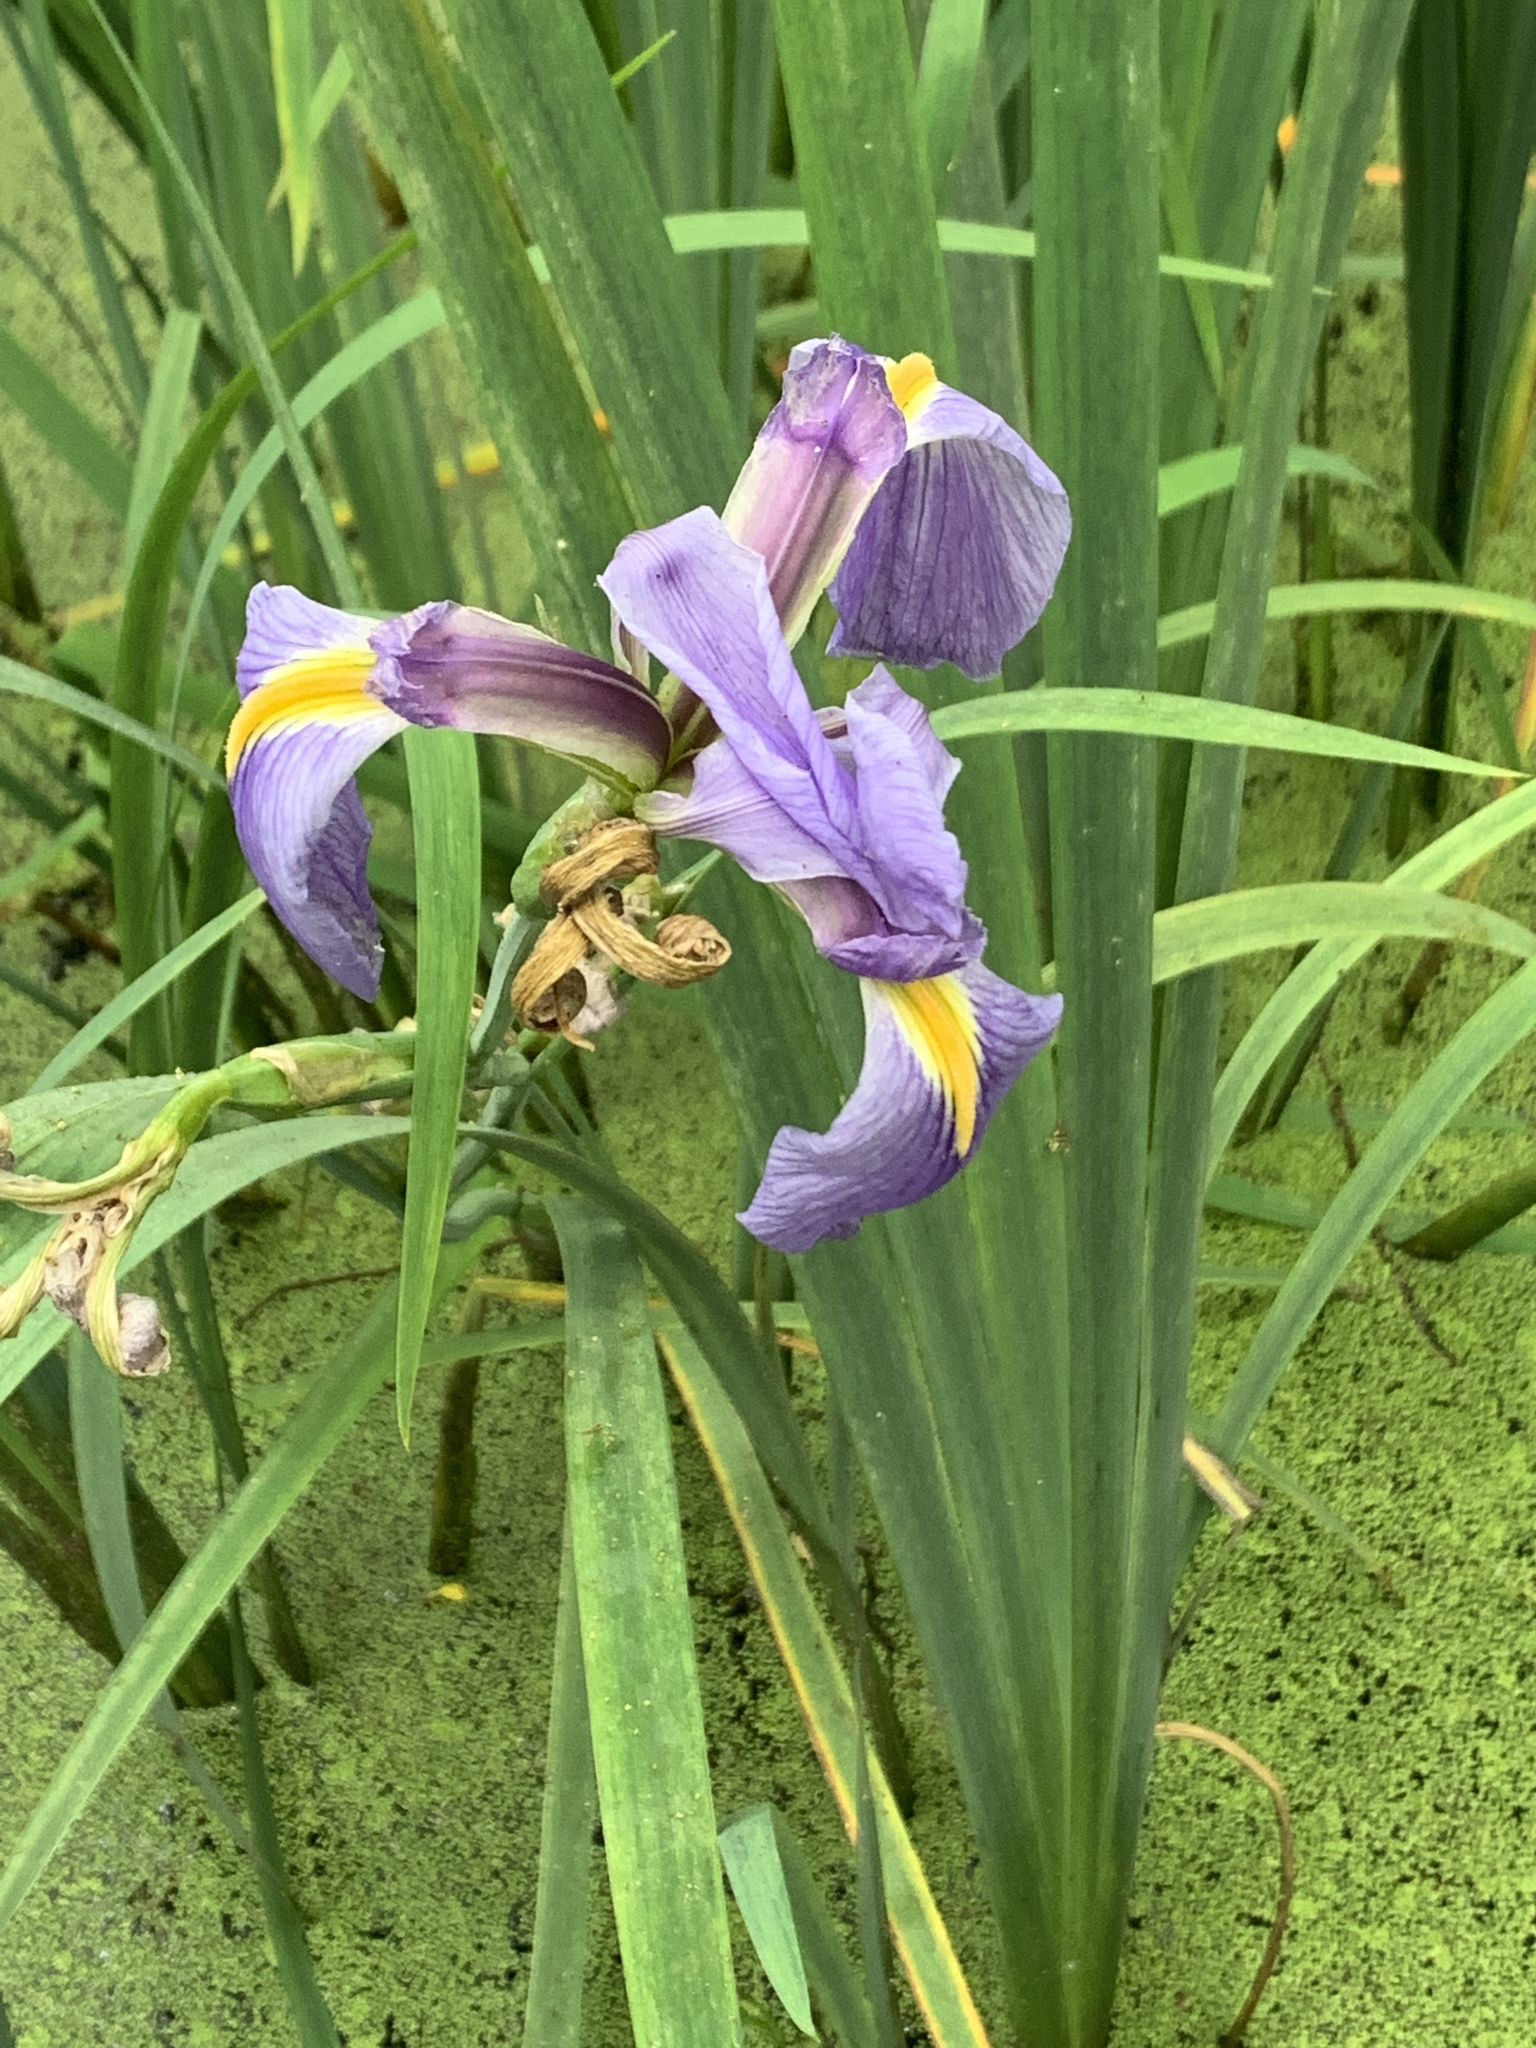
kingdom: Plantae
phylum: Tracheophyta
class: Liliopsida
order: Asparagales
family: Iridaceae
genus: Iris
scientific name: Iris virginica
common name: Southern blue flag
